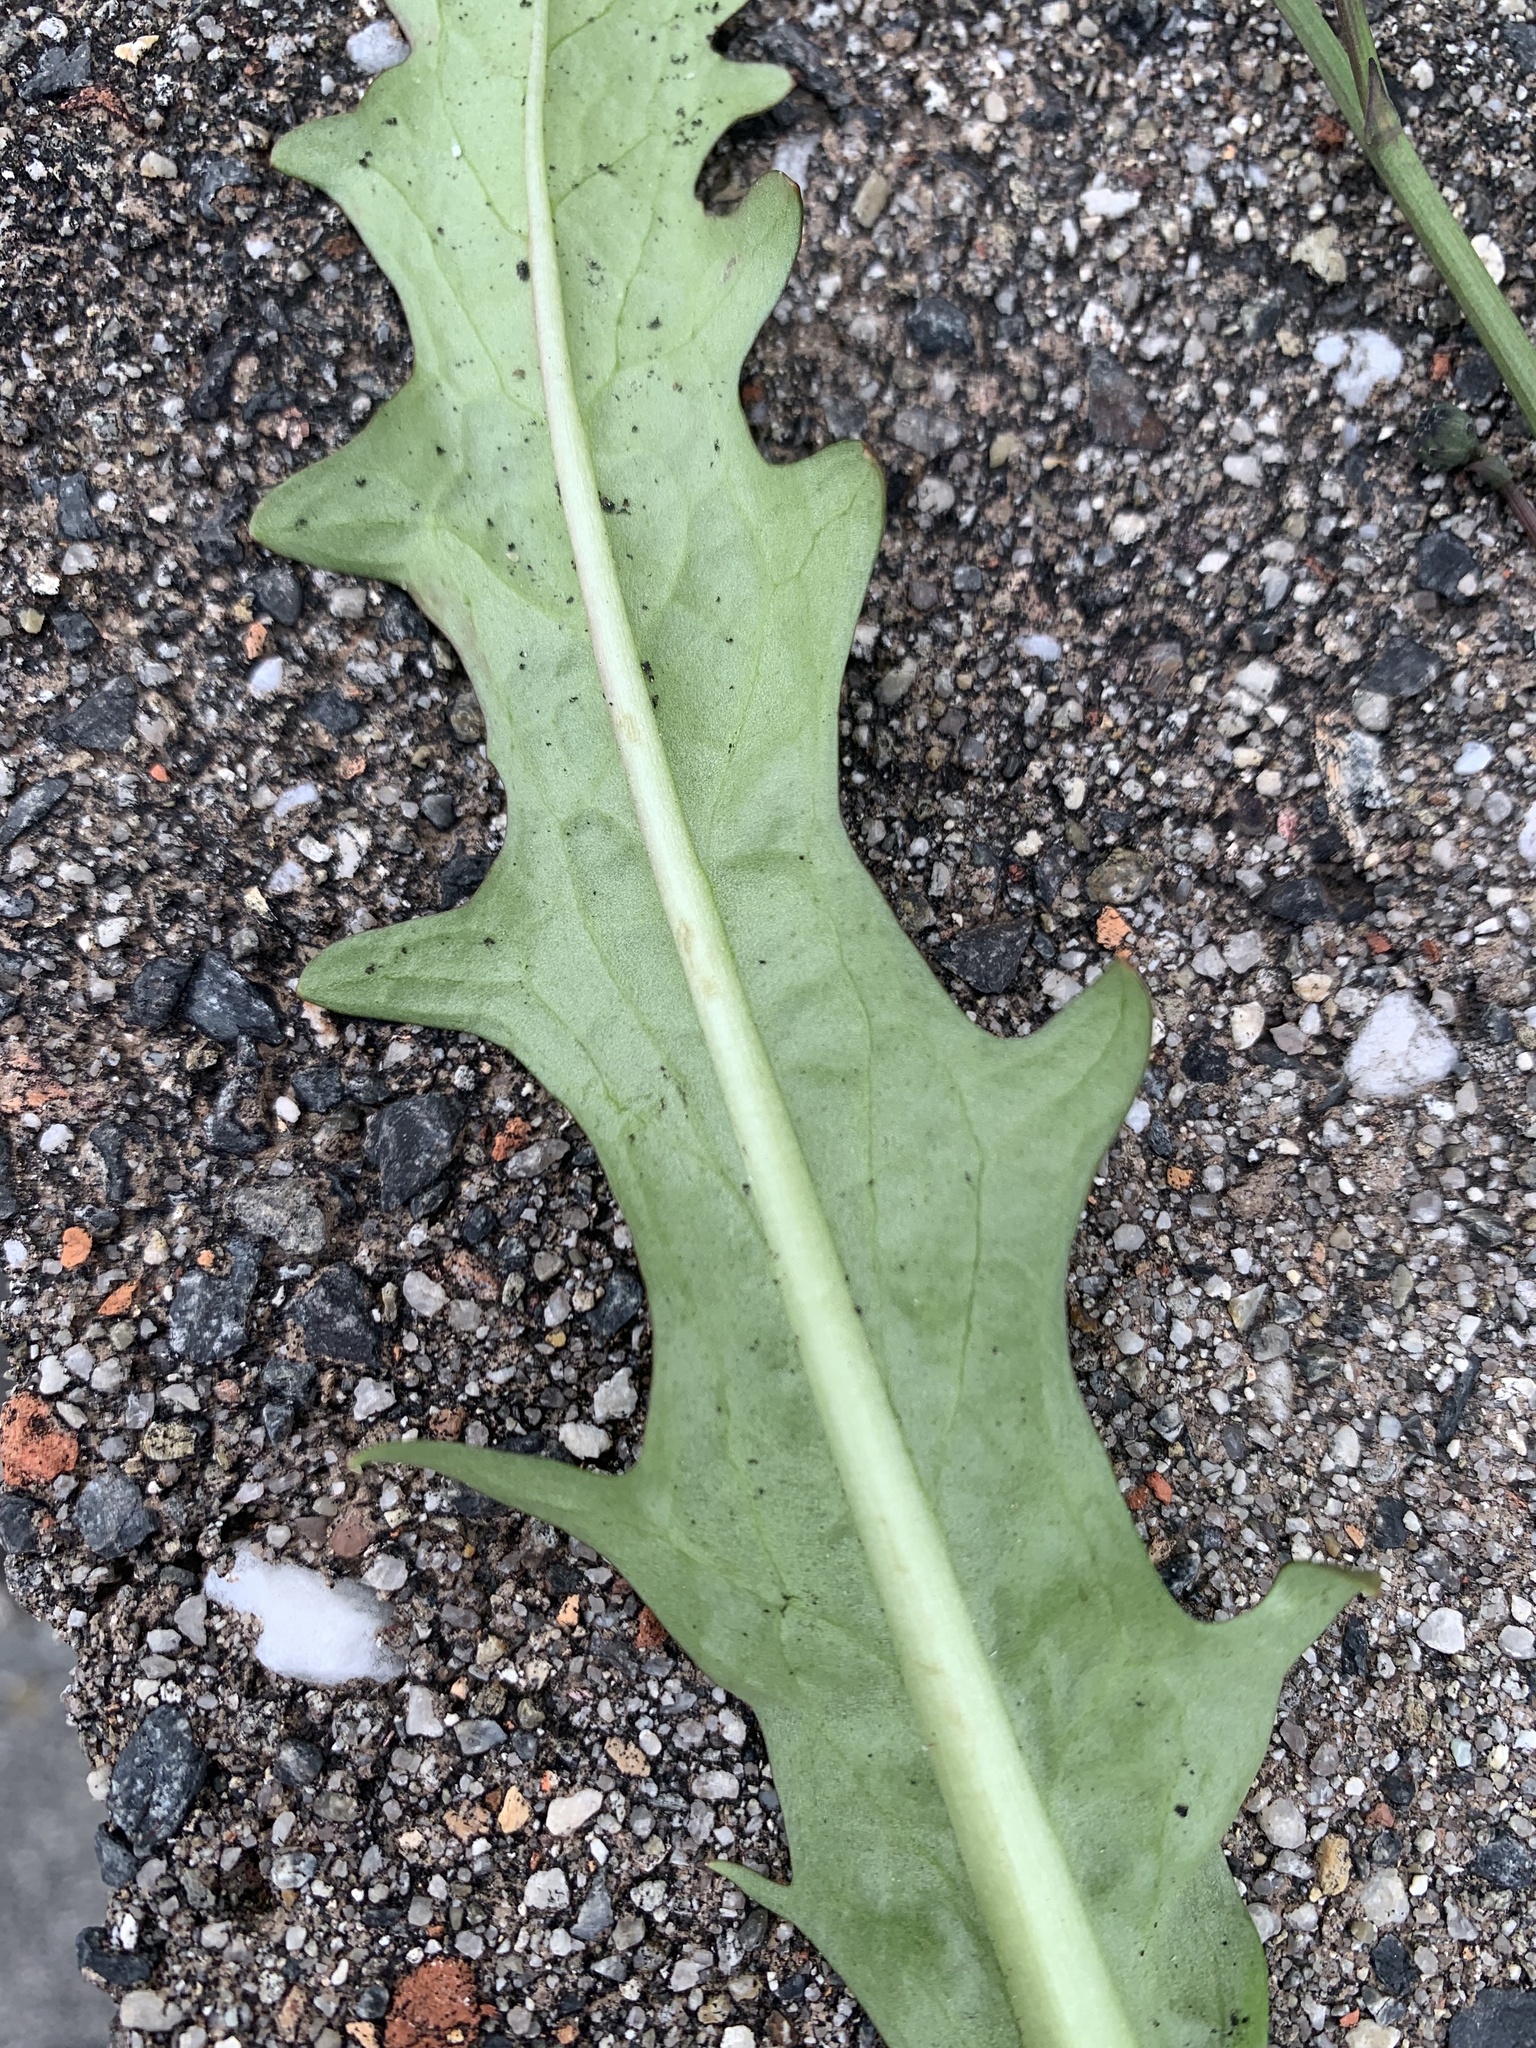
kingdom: Plantae
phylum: Tracheophyta
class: Magnoliopsida
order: Asterales
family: Asteraceae
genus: Hypochaeris
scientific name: Hypochaeris glabra
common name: Smooth catsear
